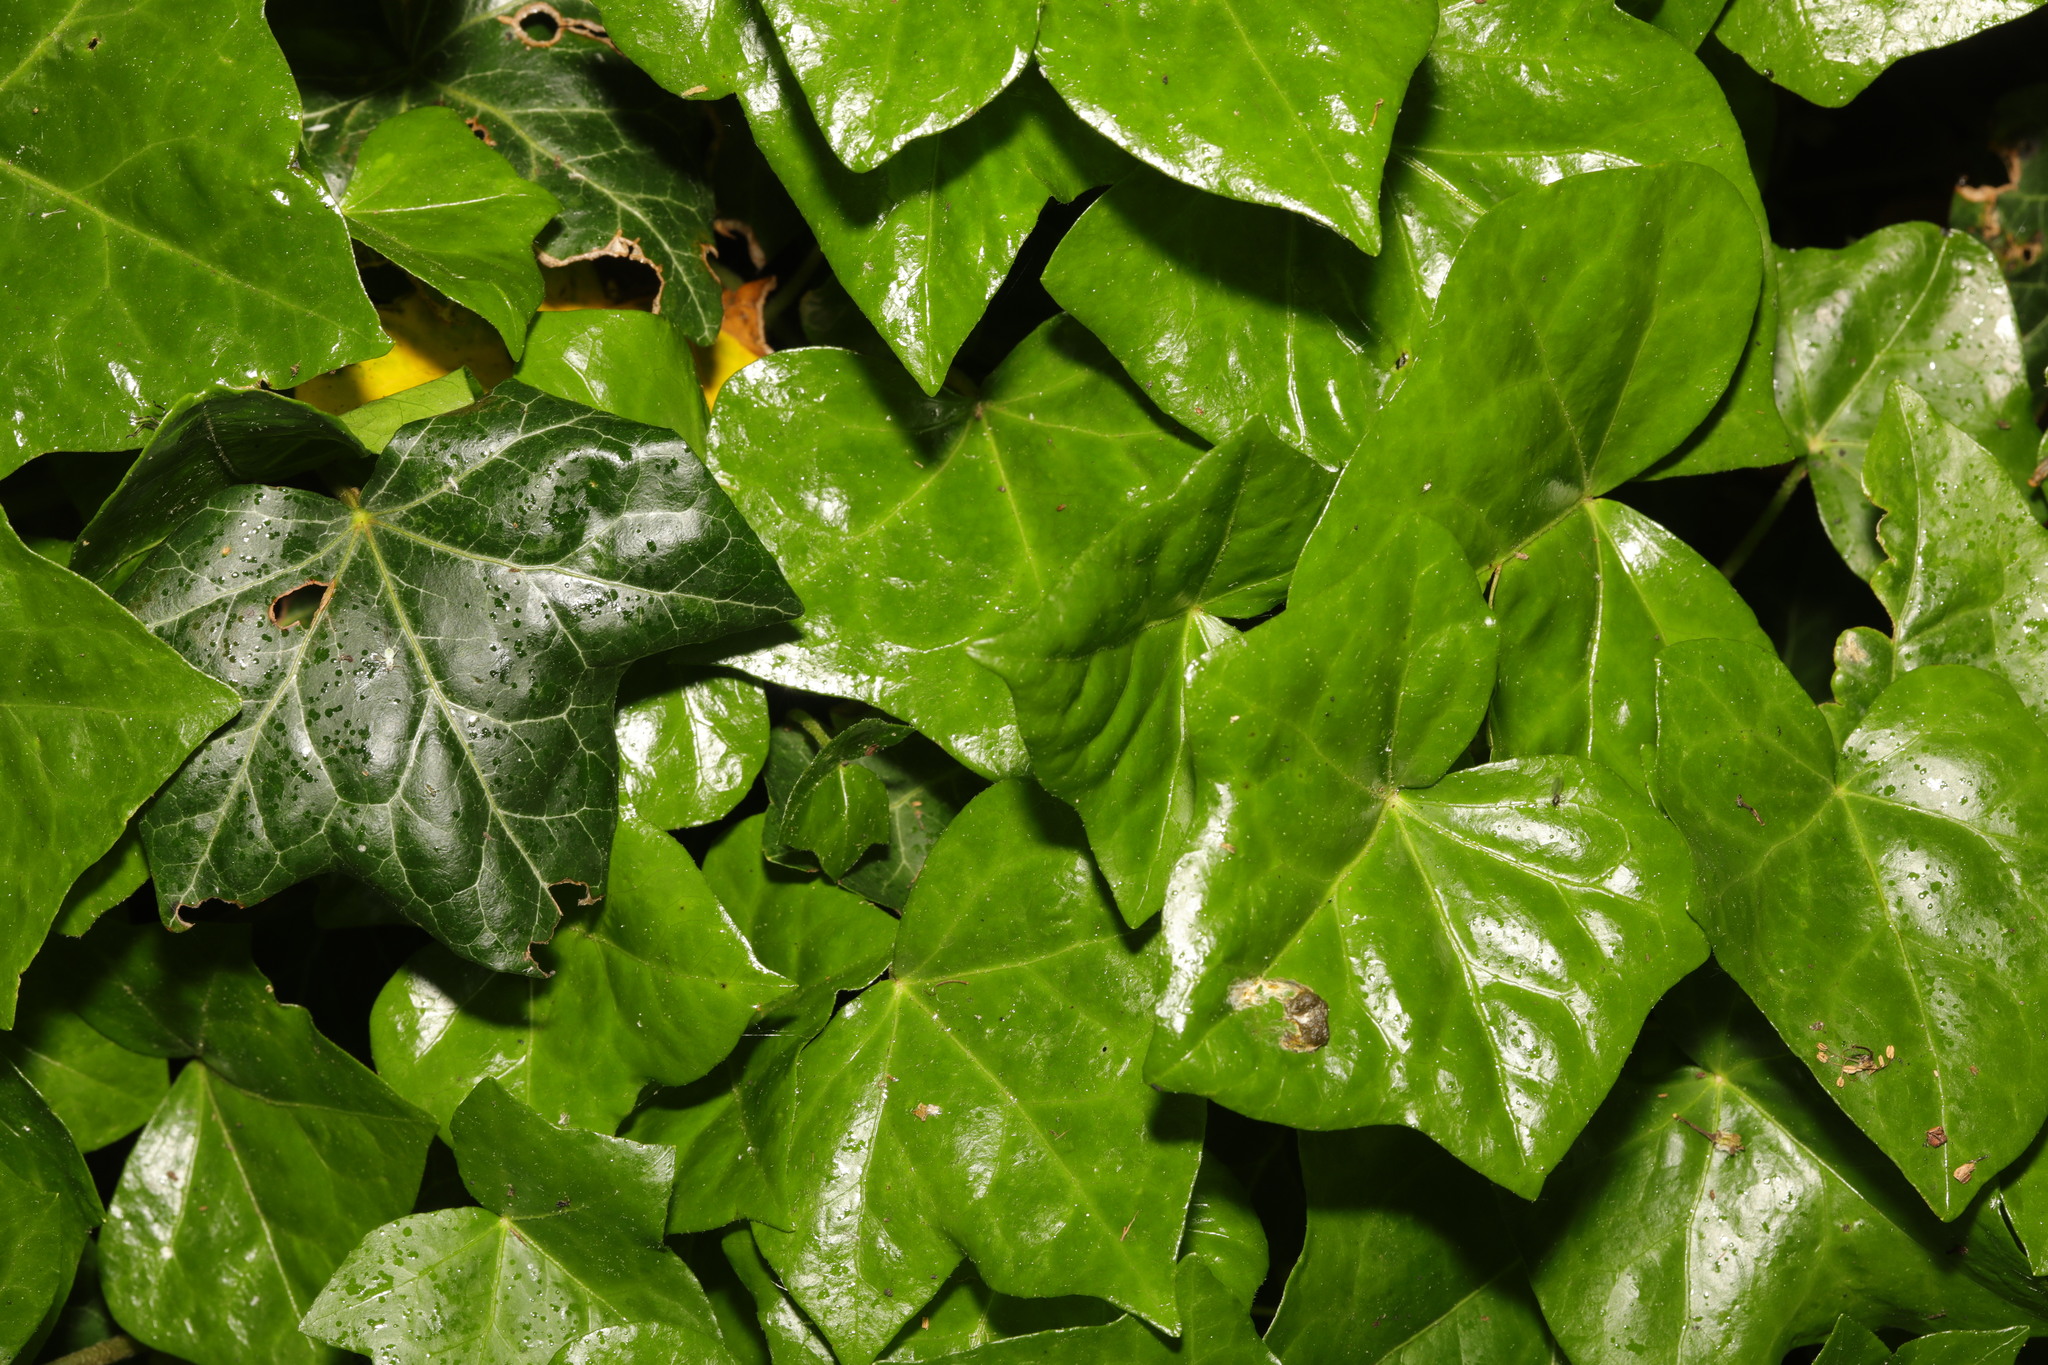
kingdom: Plantae
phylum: Tracheophyta
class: Magnoliopsida
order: Apiales
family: Araliaceae
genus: Hedera
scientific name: Hedera helix
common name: Ivy
